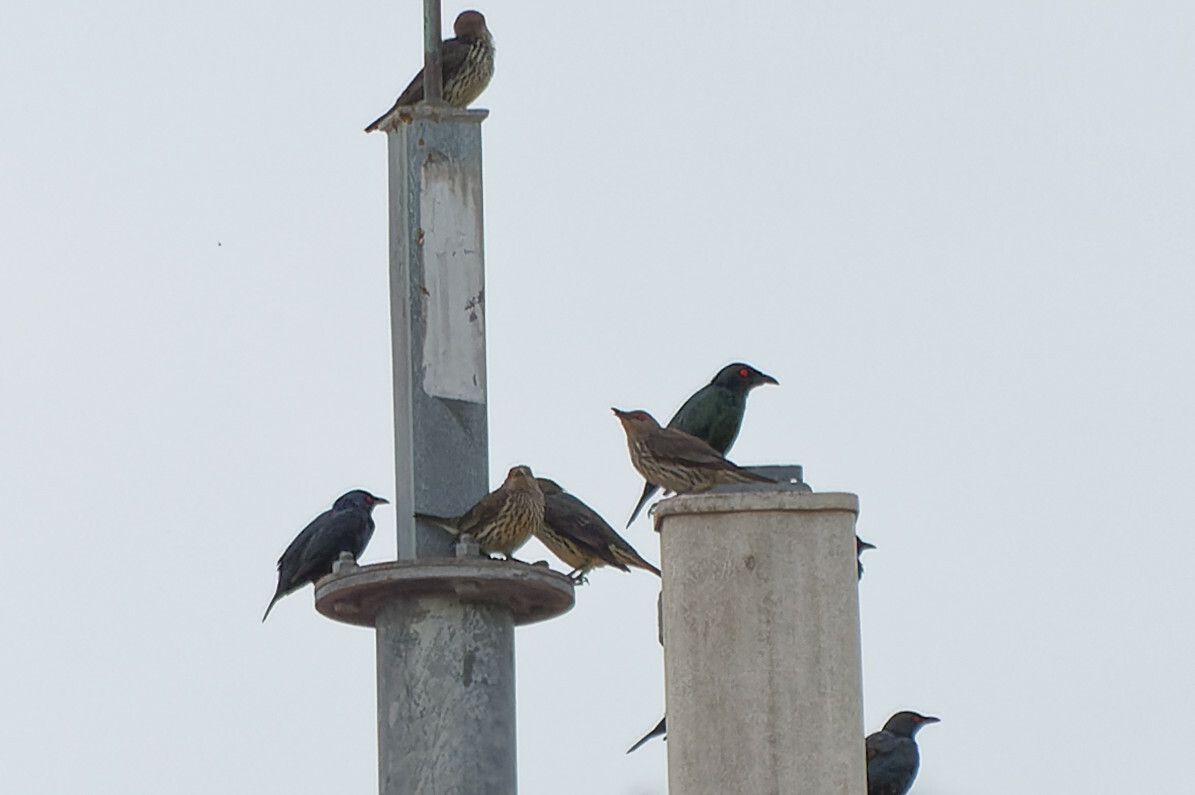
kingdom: Animalia
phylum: Chordata
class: Aves
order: Passeriformes
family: Sturnidae
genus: Aplonis
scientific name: Aplonis panayensis
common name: Asian glossy starling
